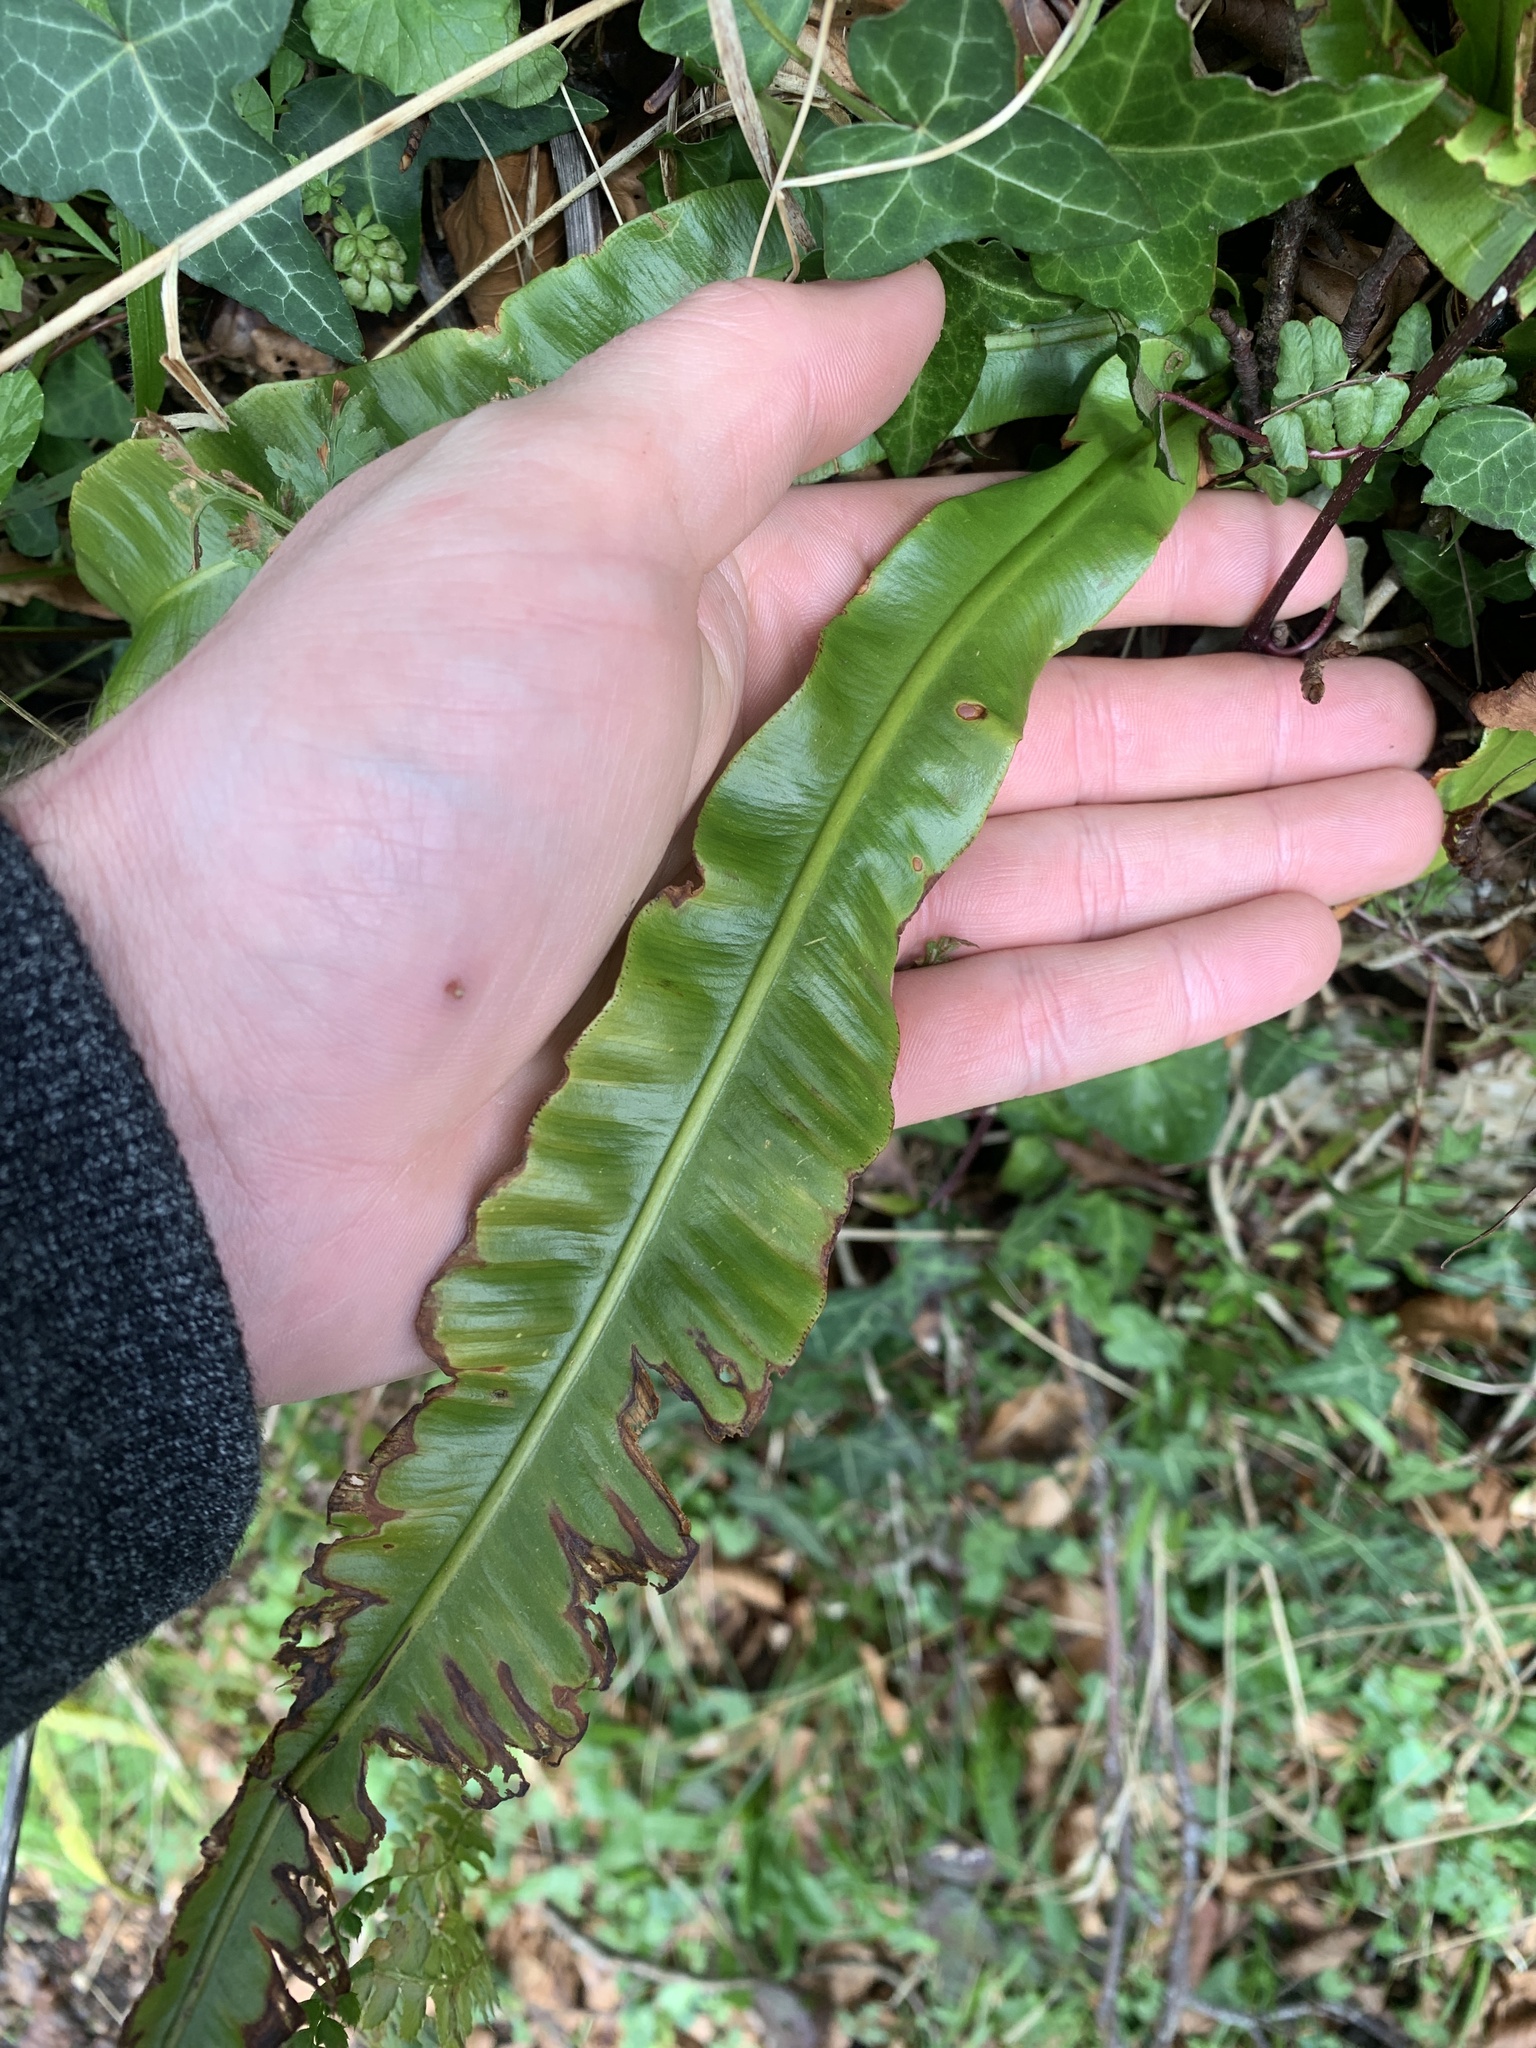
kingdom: Plantae
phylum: Tracheophyta
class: Polypodiopsida
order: Polypodiales
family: Aspleniaceae
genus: Asplenium
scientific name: Asplenium scolopendrium
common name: Hart's-tongue fern
